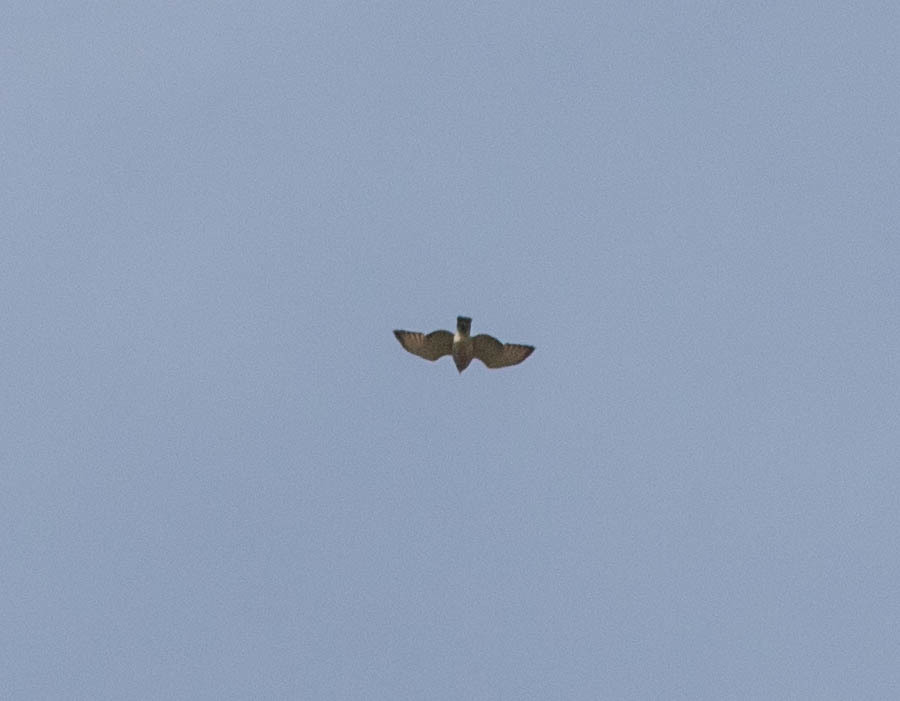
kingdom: Animalia
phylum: Chordata
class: Aves
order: Accipitriformes
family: Accipitridae
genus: Buteo
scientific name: Buteo platypterus
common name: Broad-winged hawk
